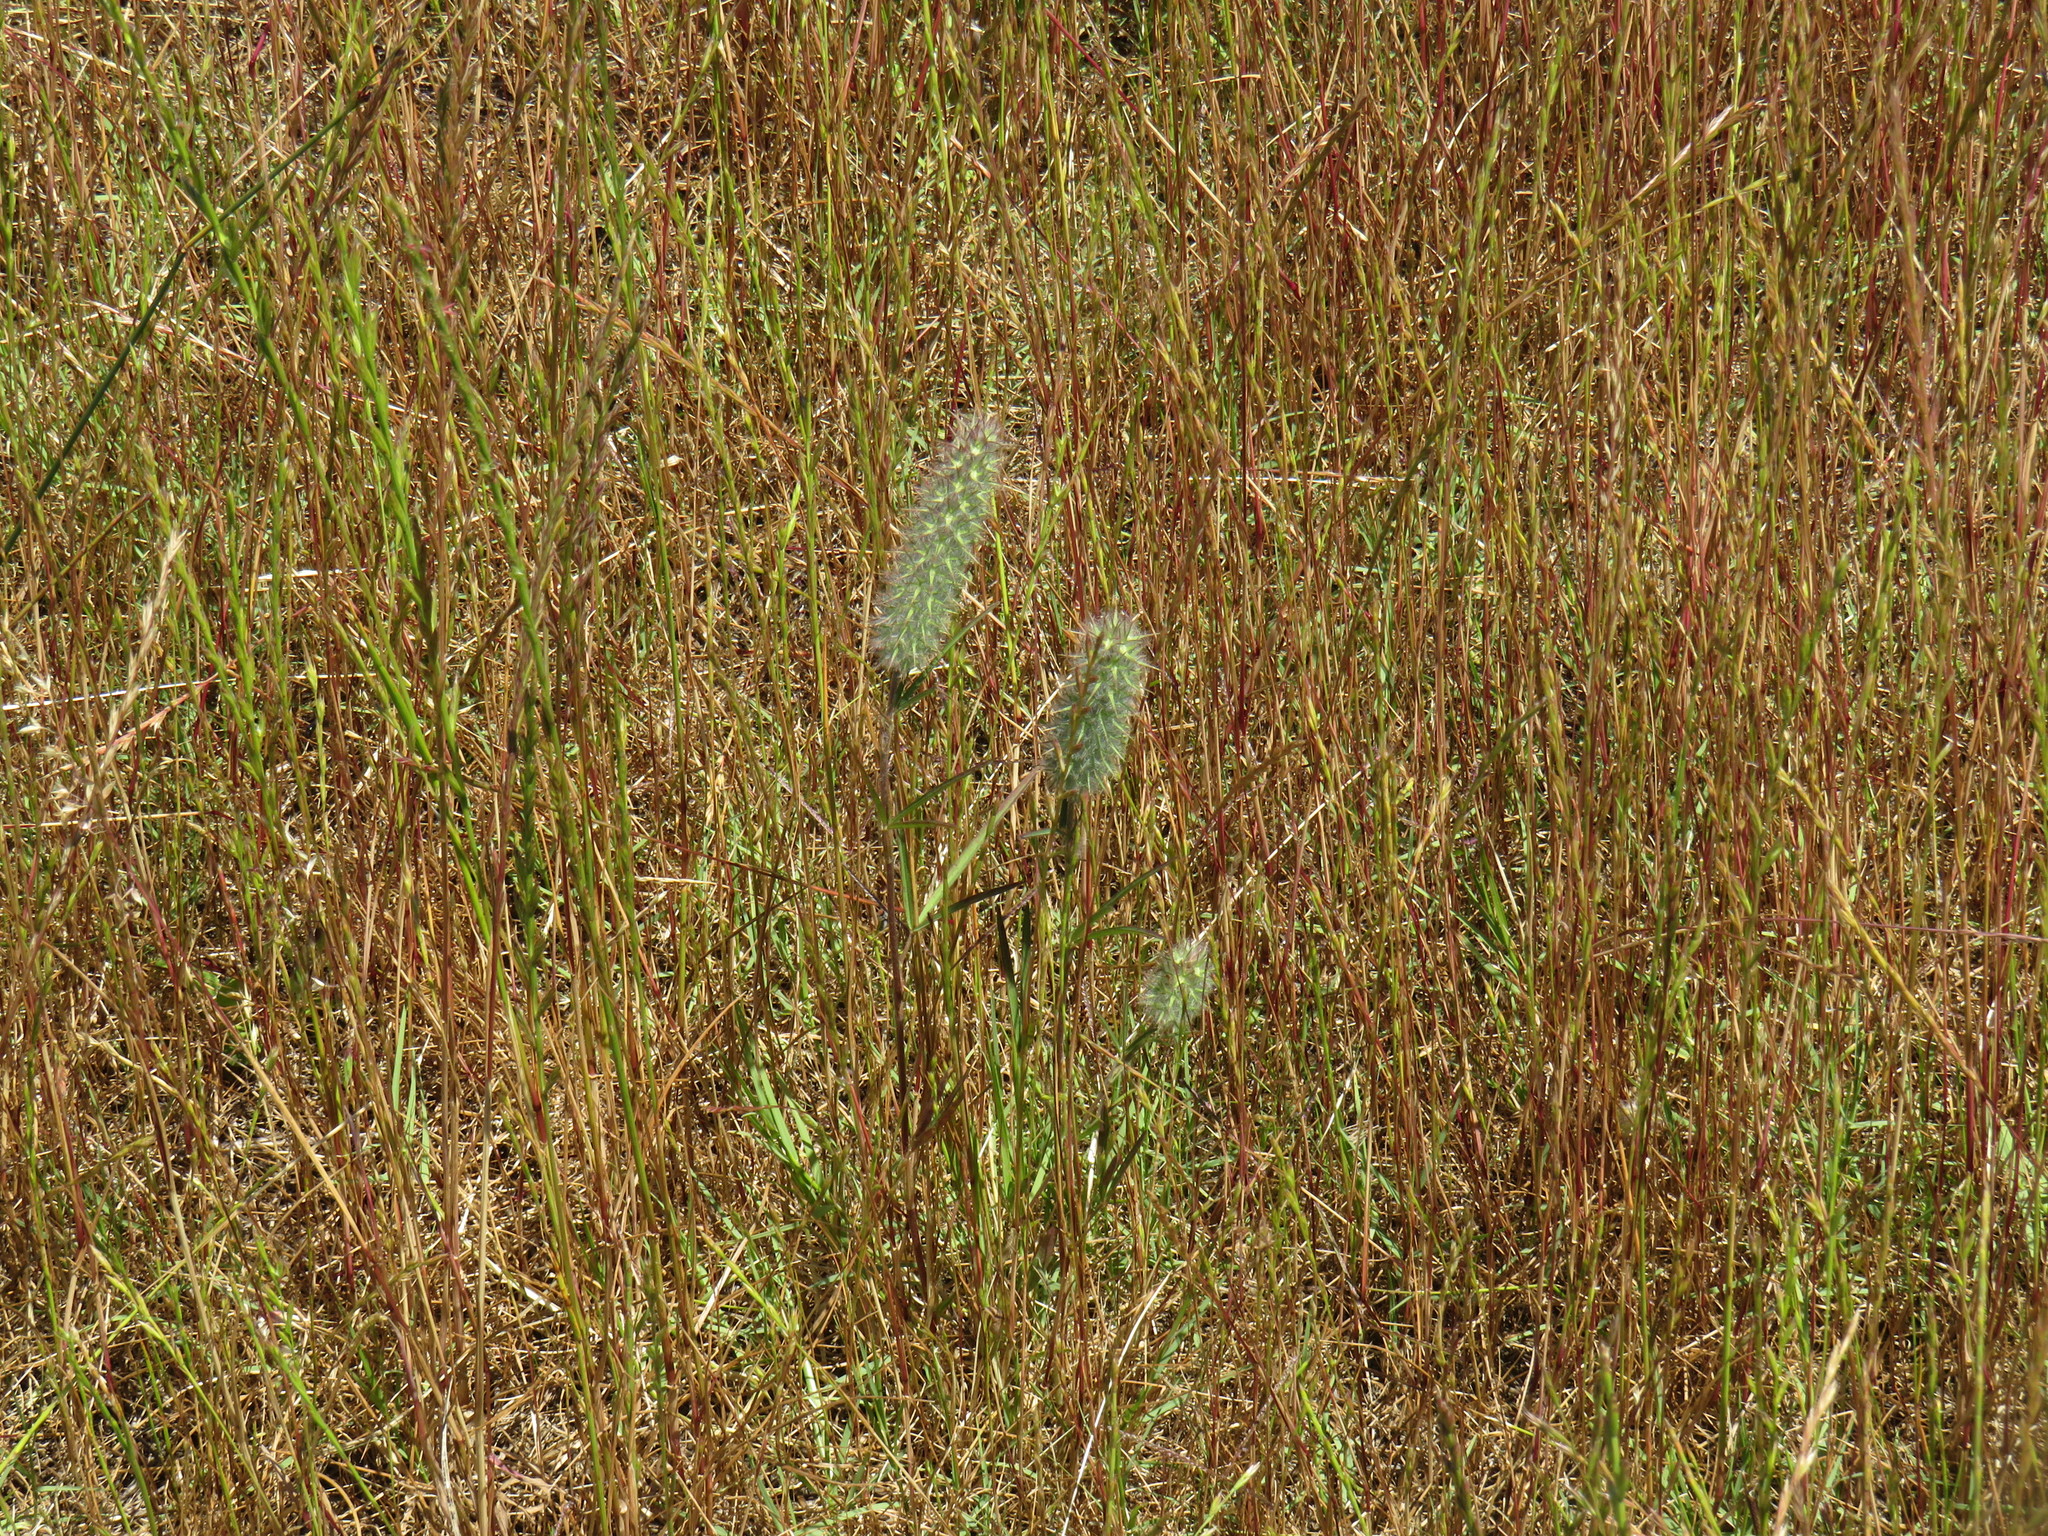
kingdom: Plantae
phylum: Tracheophyta
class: Magnoliopsida
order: Fabales
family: Fabaceae
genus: Trifolium
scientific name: Trifolium angustifolium
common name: Narrow clover
